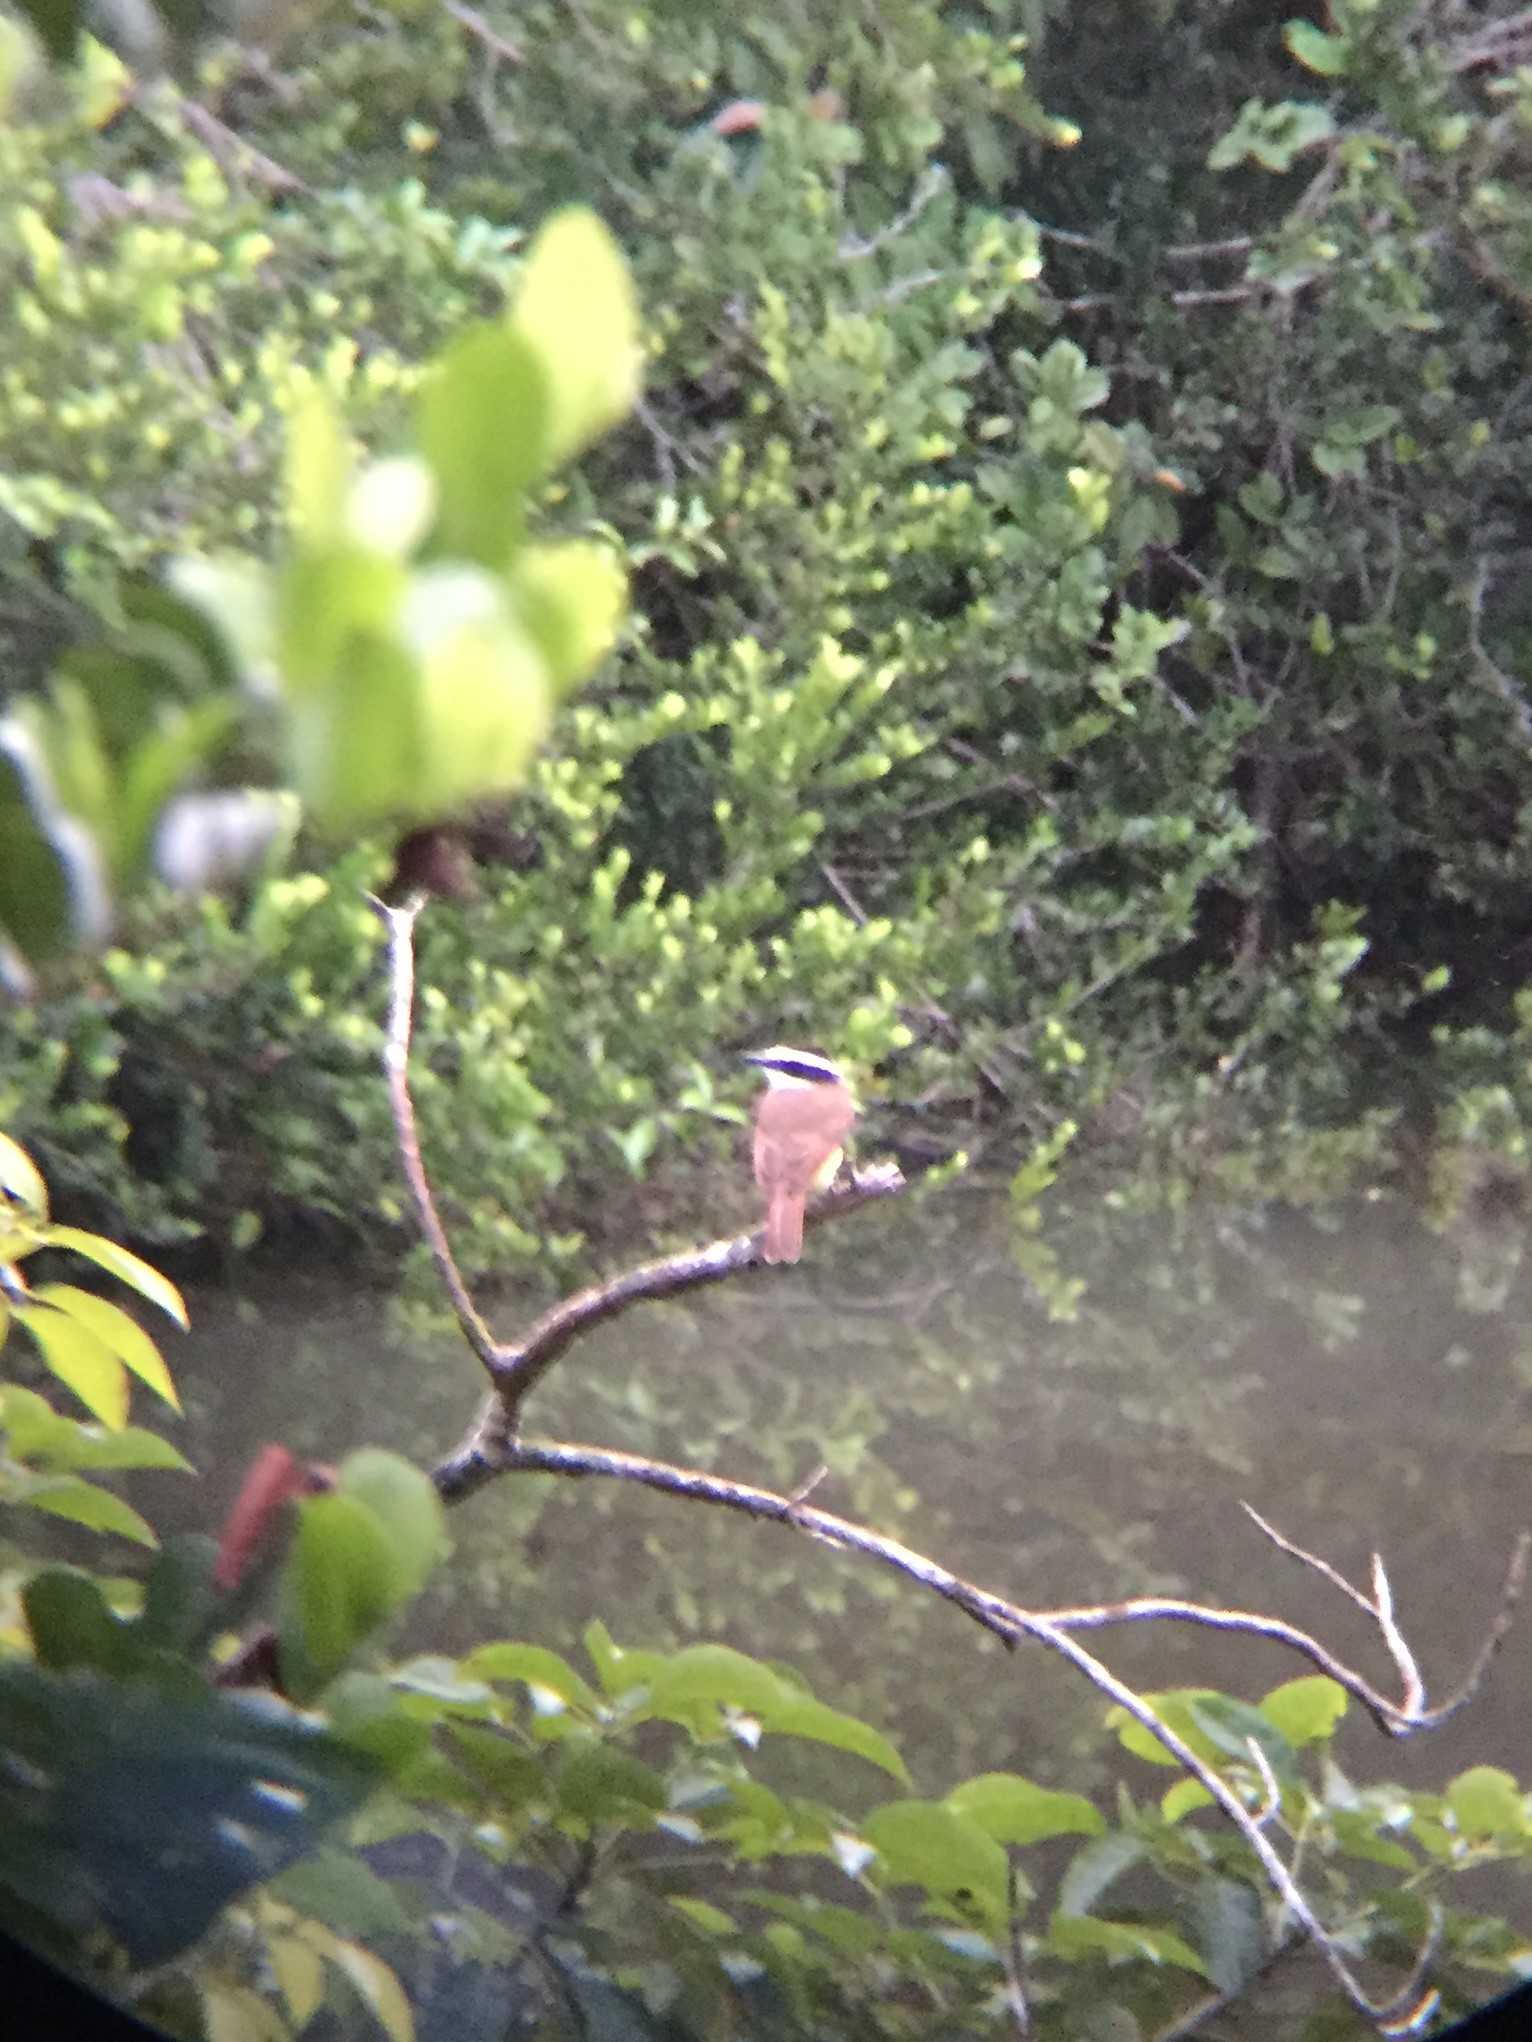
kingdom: Animalia
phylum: Chordata
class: Aves
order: Passeriformes
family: Tyrannidae
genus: Pitangus
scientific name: Pitangus sulphuratus
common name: Great kiskadee
